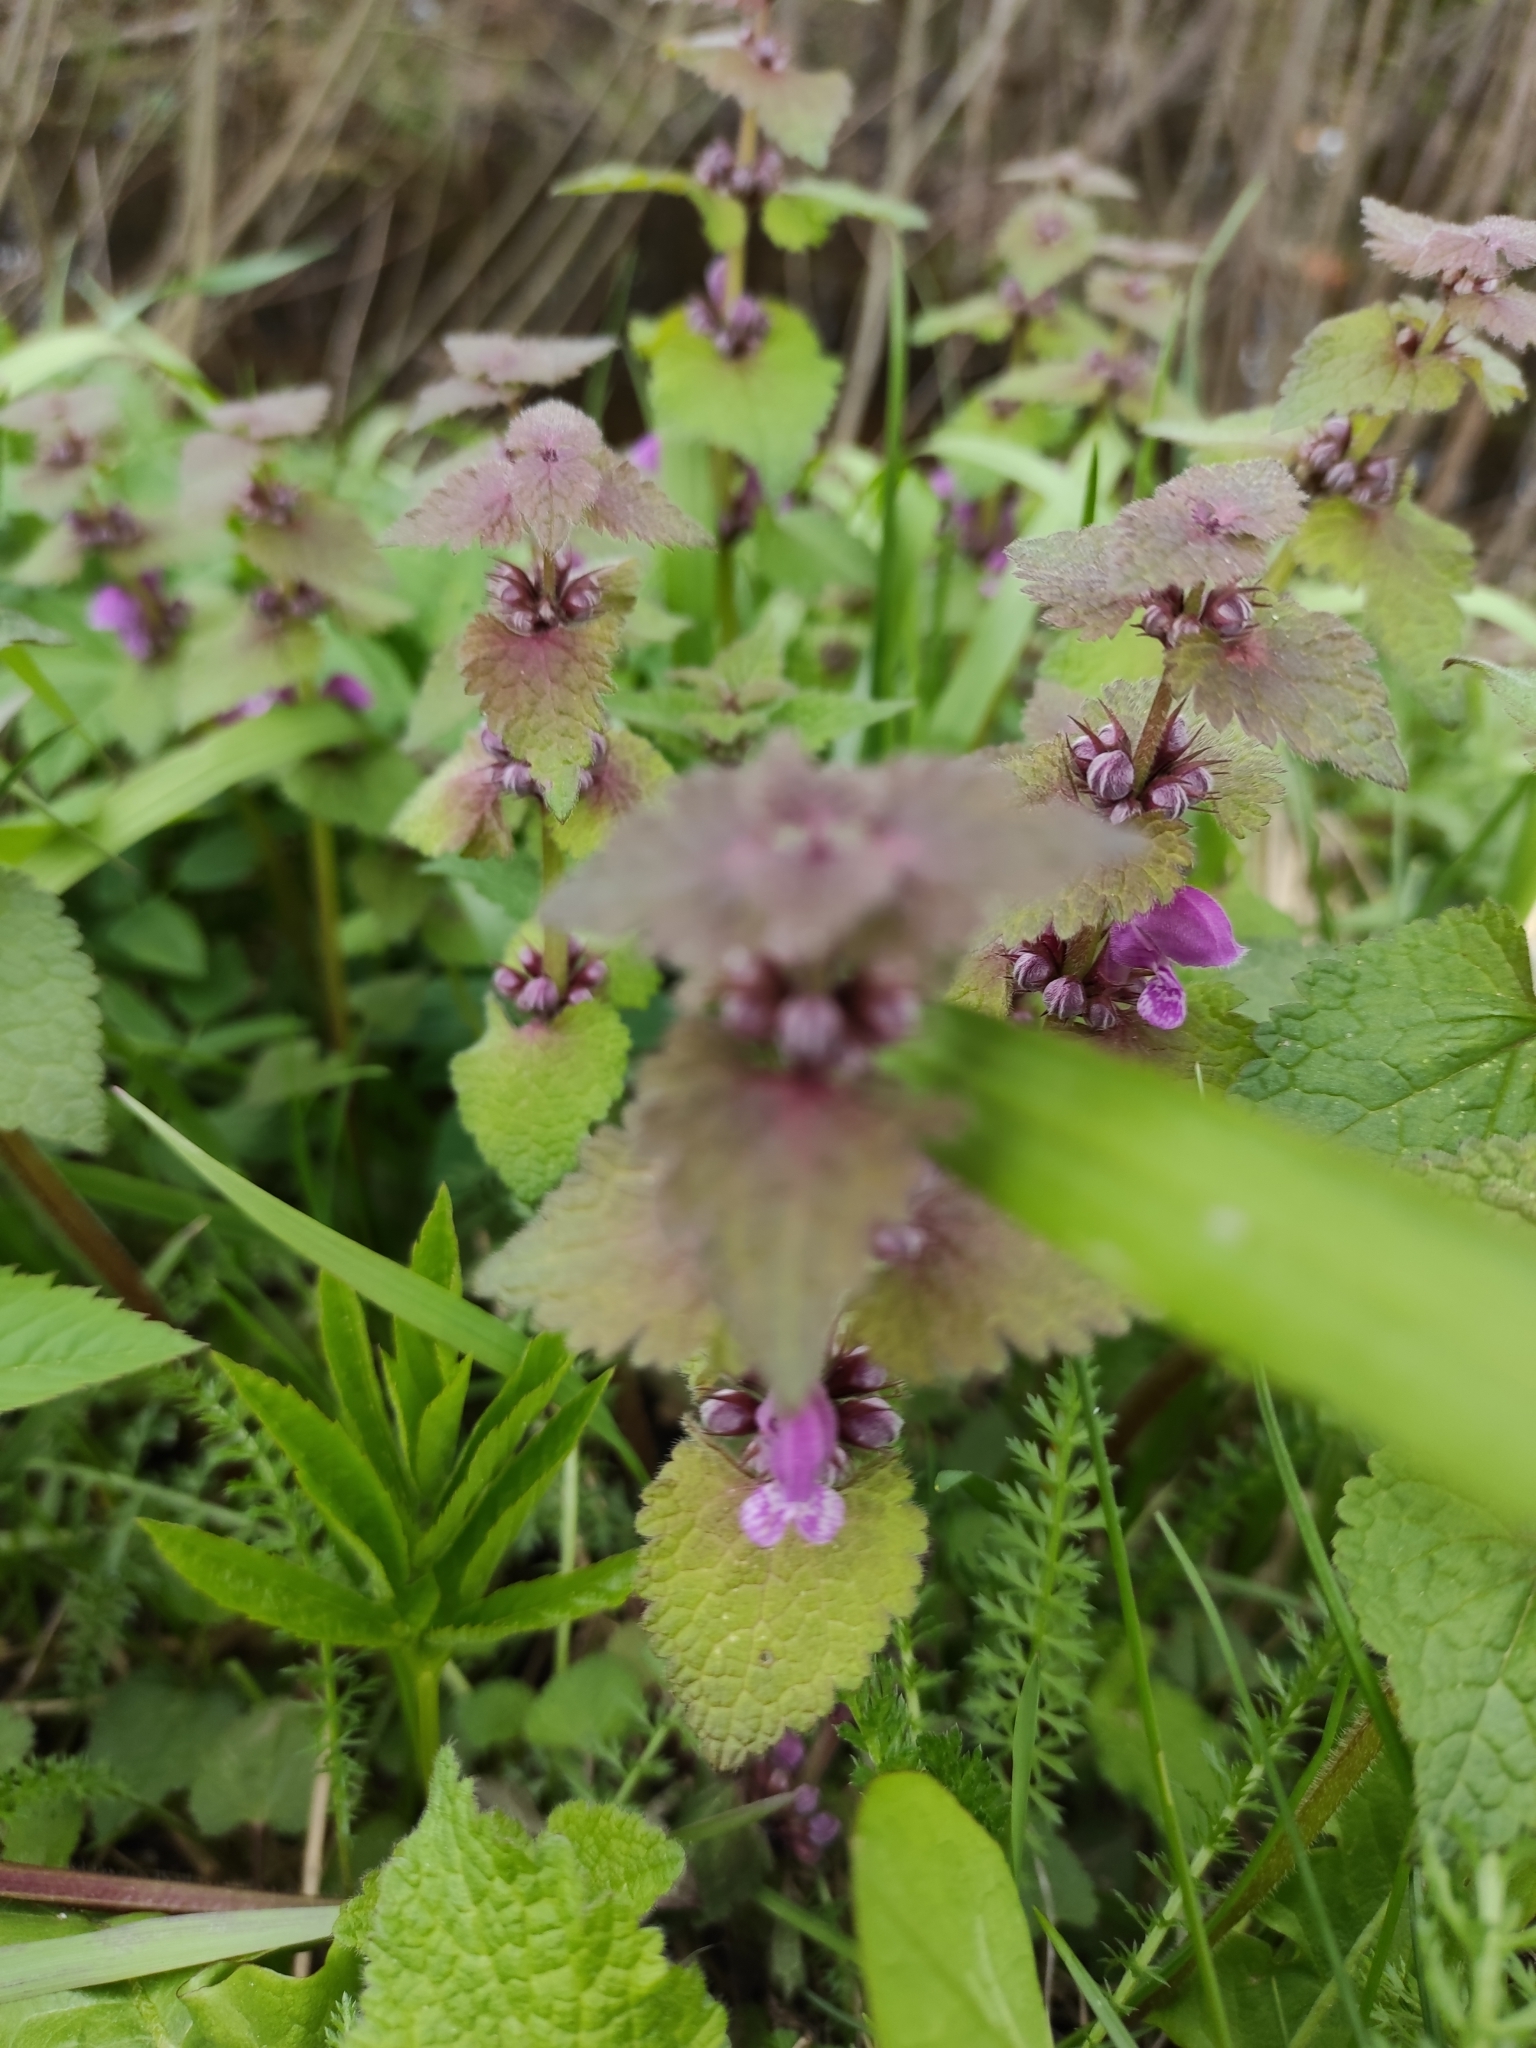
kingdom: Plantae
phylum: Tracheophyta
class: Magnoliopsida
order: Lamiales
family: Lamiaceae
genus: Lamium
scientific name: Lamium maculatum
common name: Spotted dead-nettle
